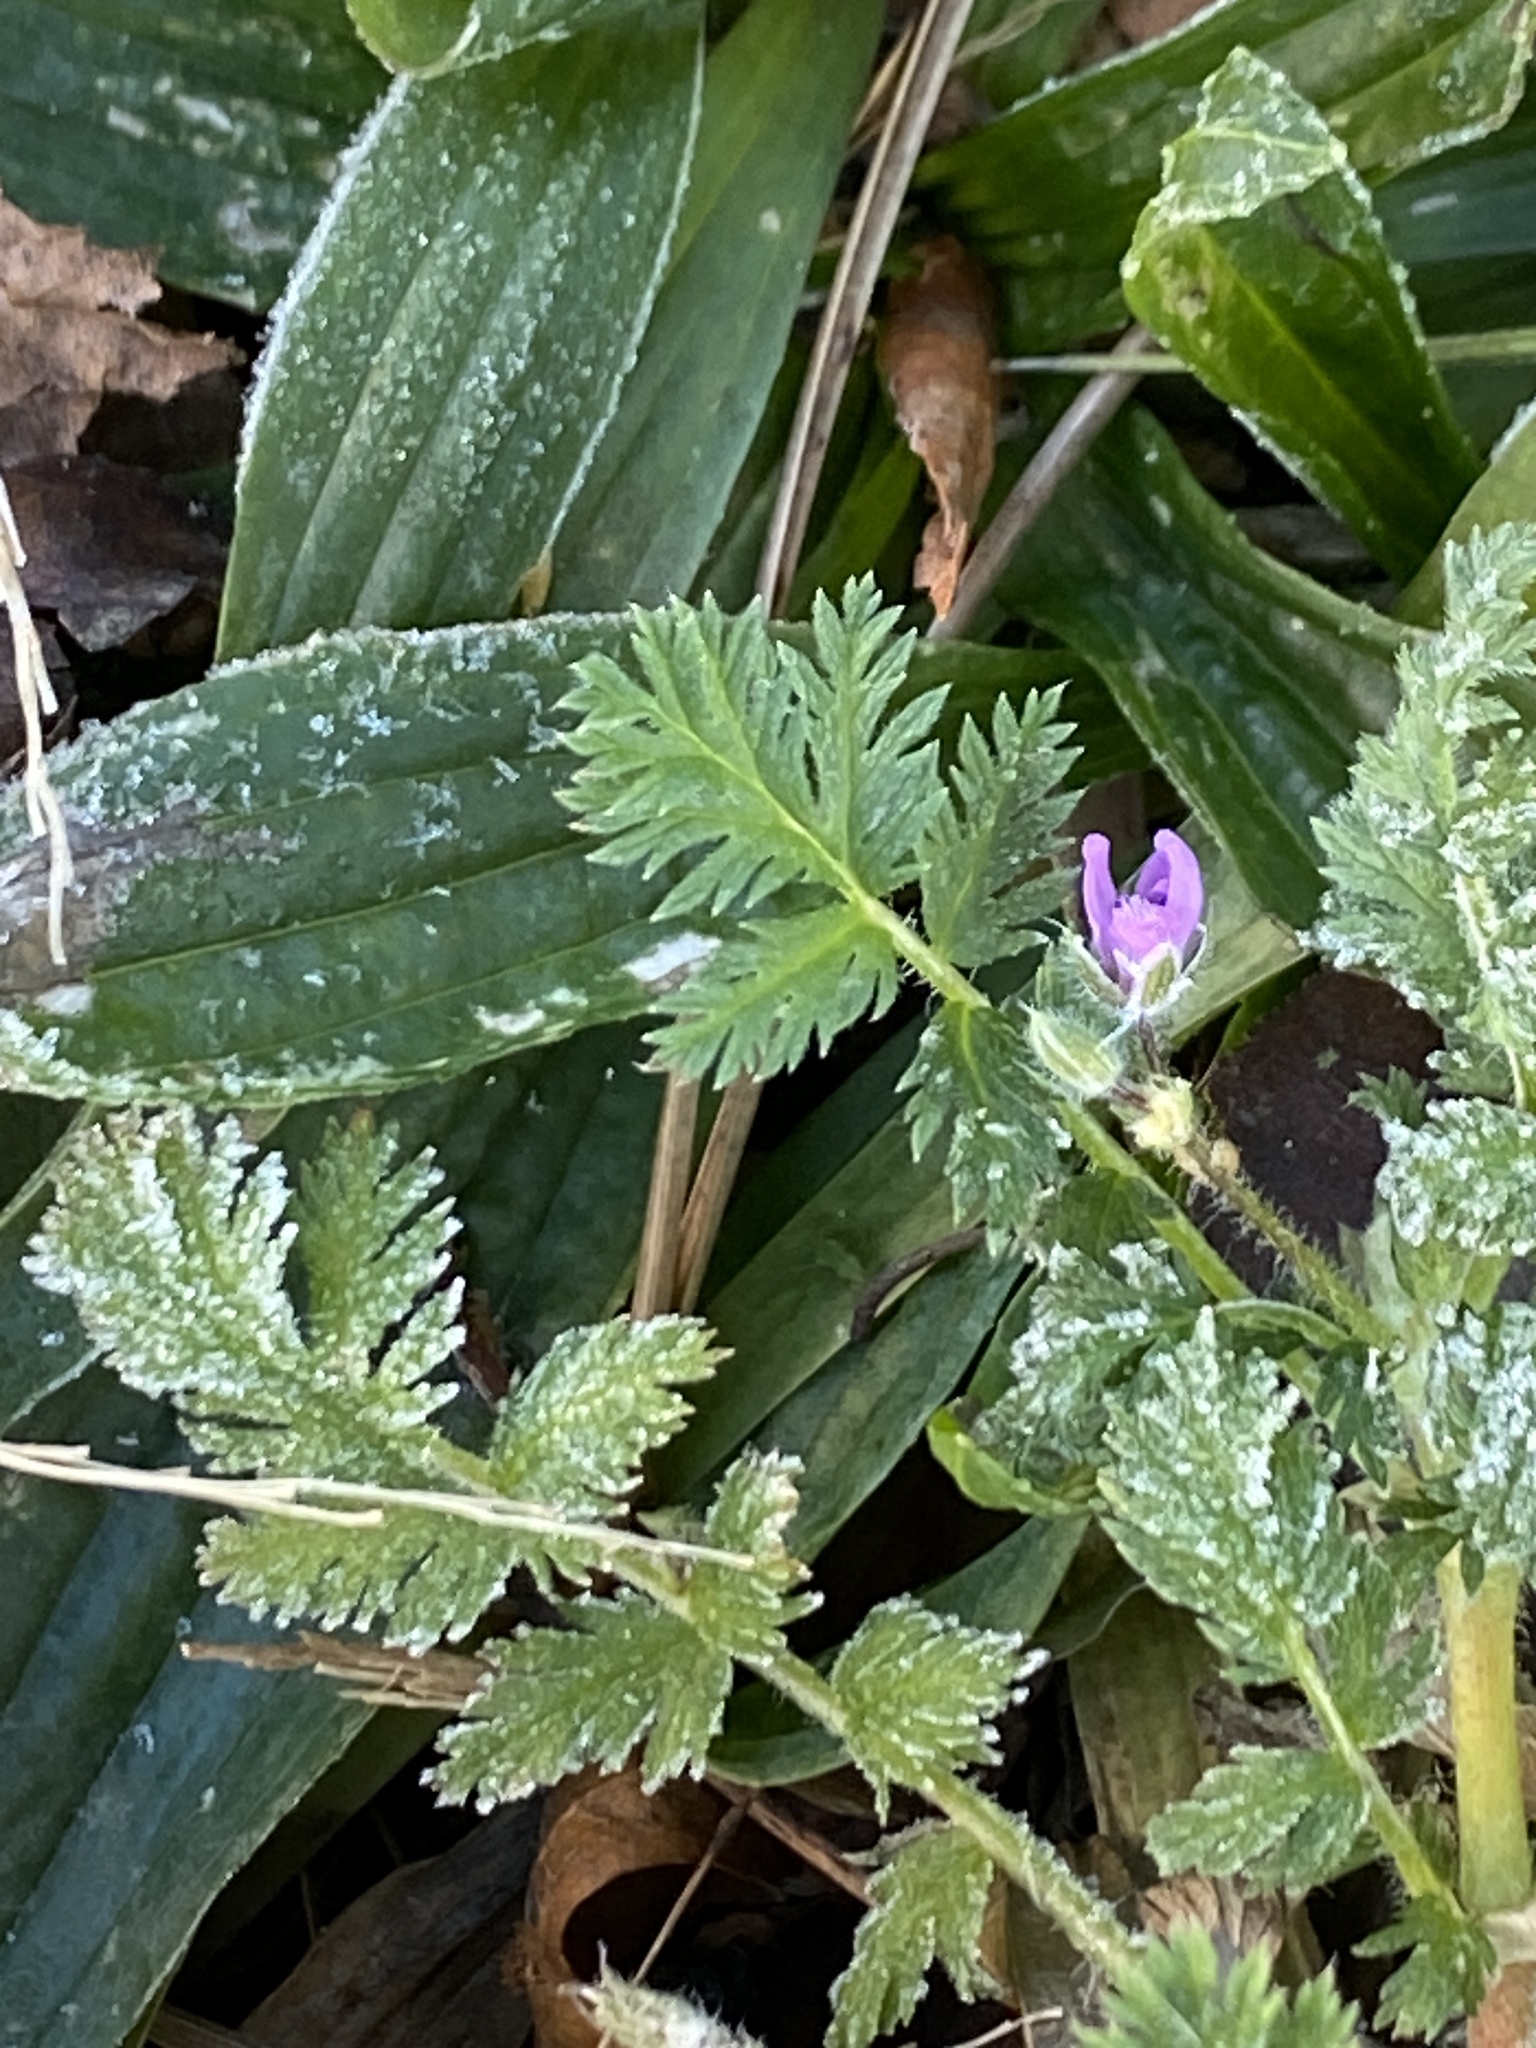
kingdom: Plantae
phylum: Tracheophyta
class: Magnoliopsida
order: Geraniales
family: Geraniaceae
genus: Erodium
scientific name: Erodium cicutarium
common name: Common stork's-bill
